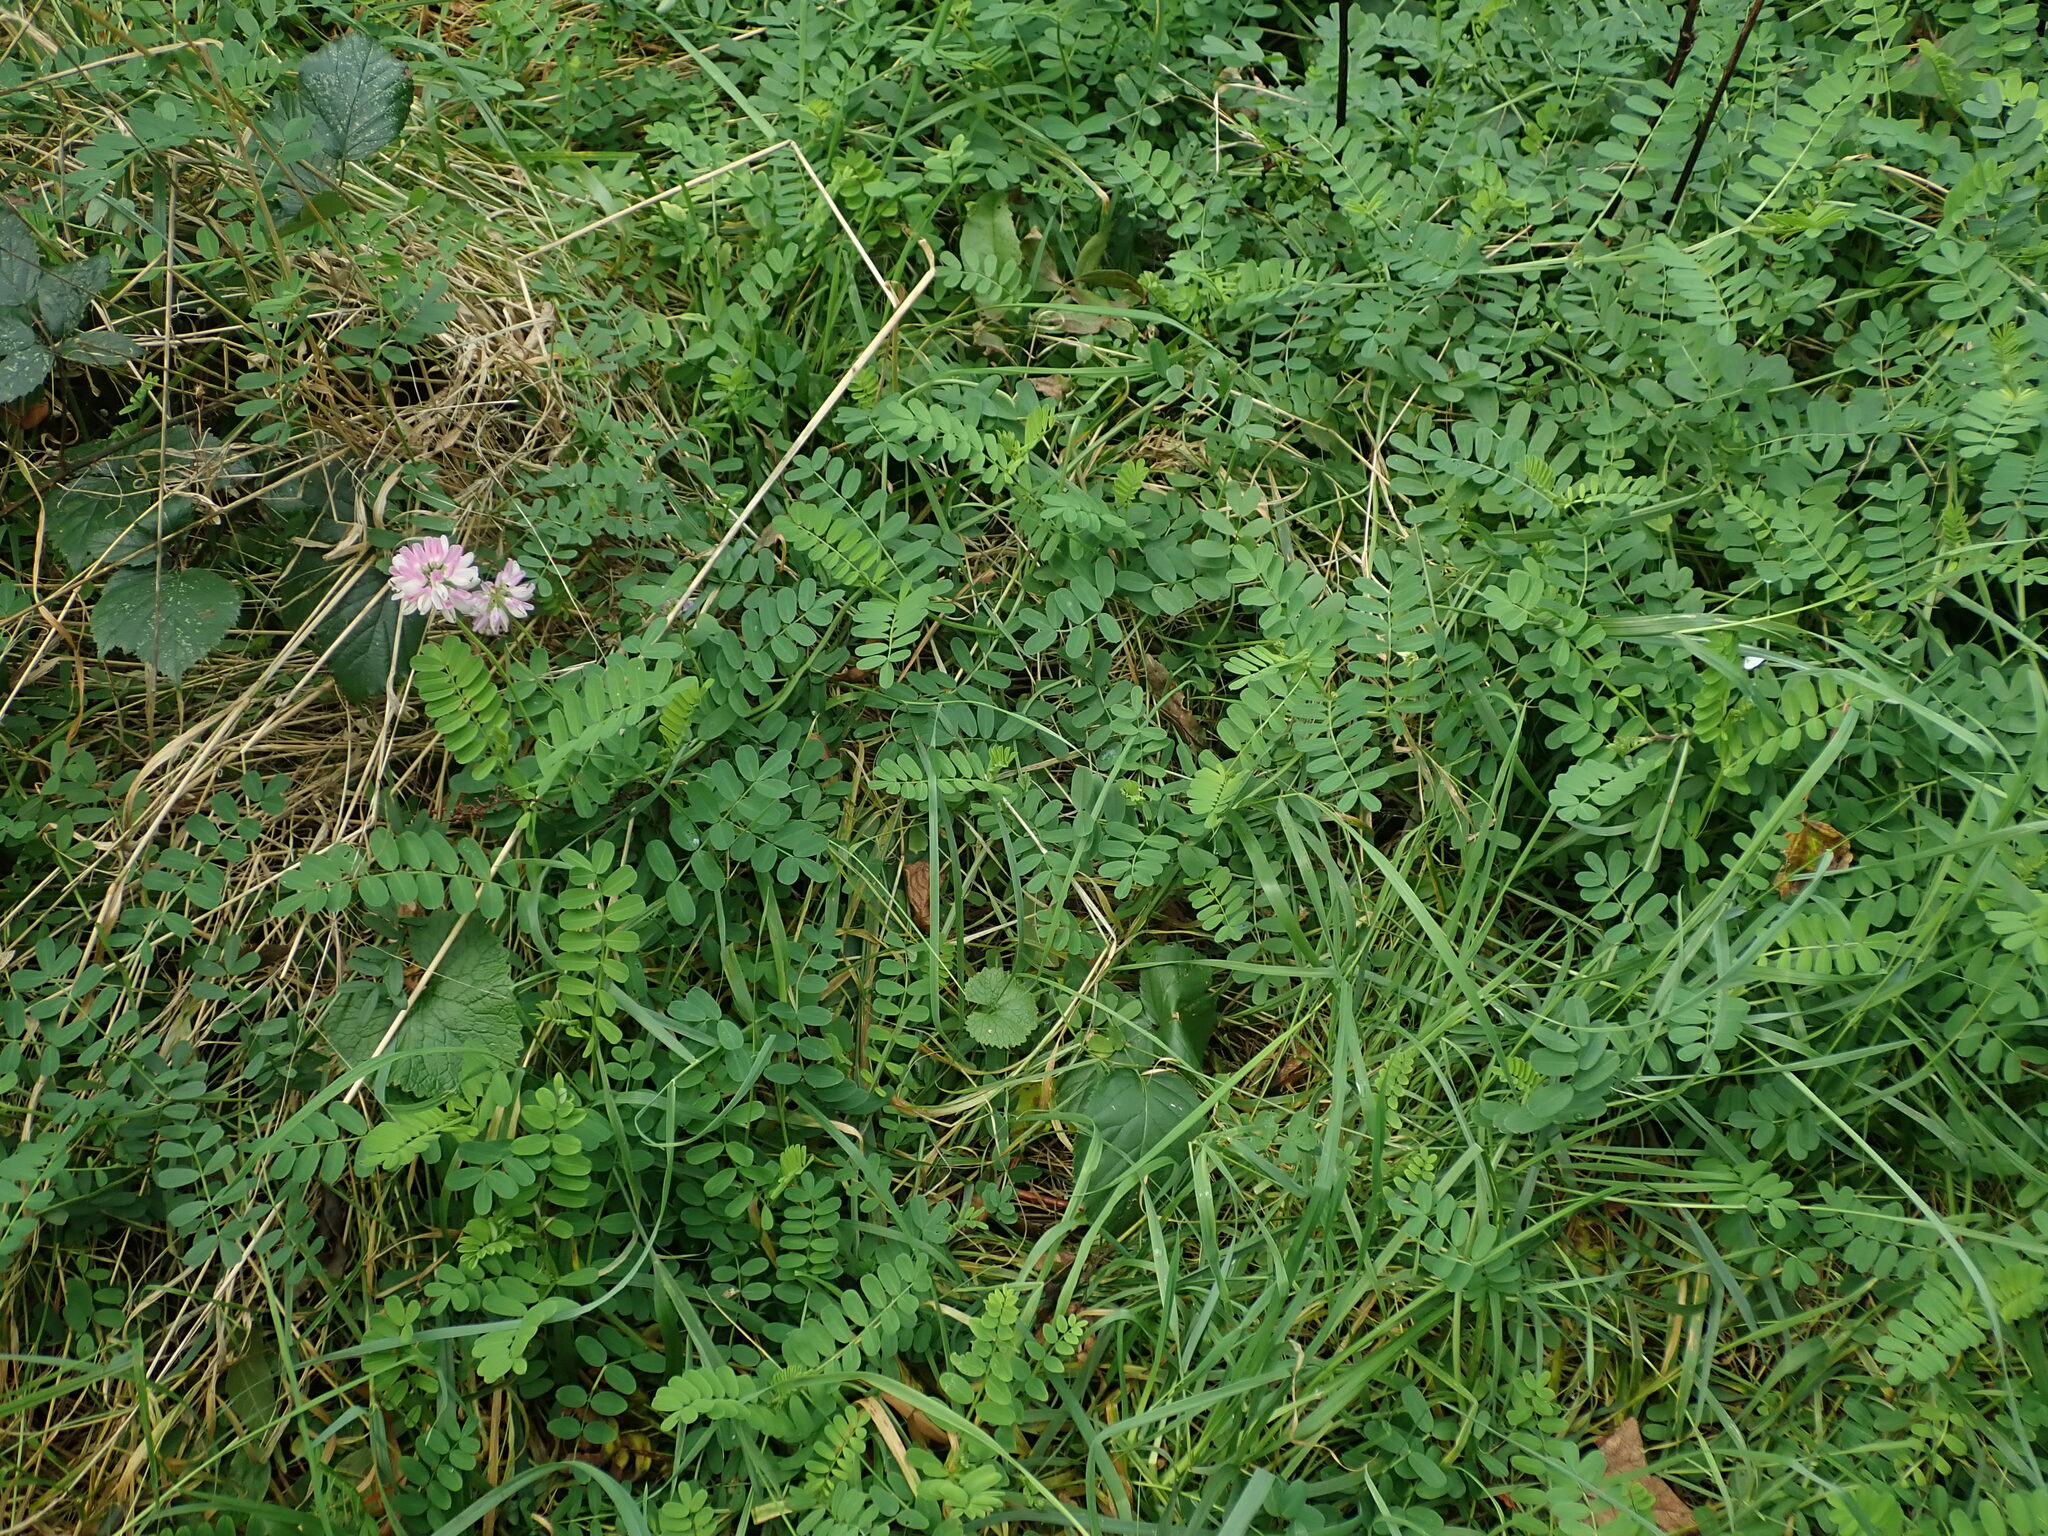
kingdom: Plantae
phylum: Tracheophyta
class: Magnoliopsida
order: Fabales
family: Fabaceae
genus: Coronilla
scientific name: Coronilla varia
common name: Crownvetch
